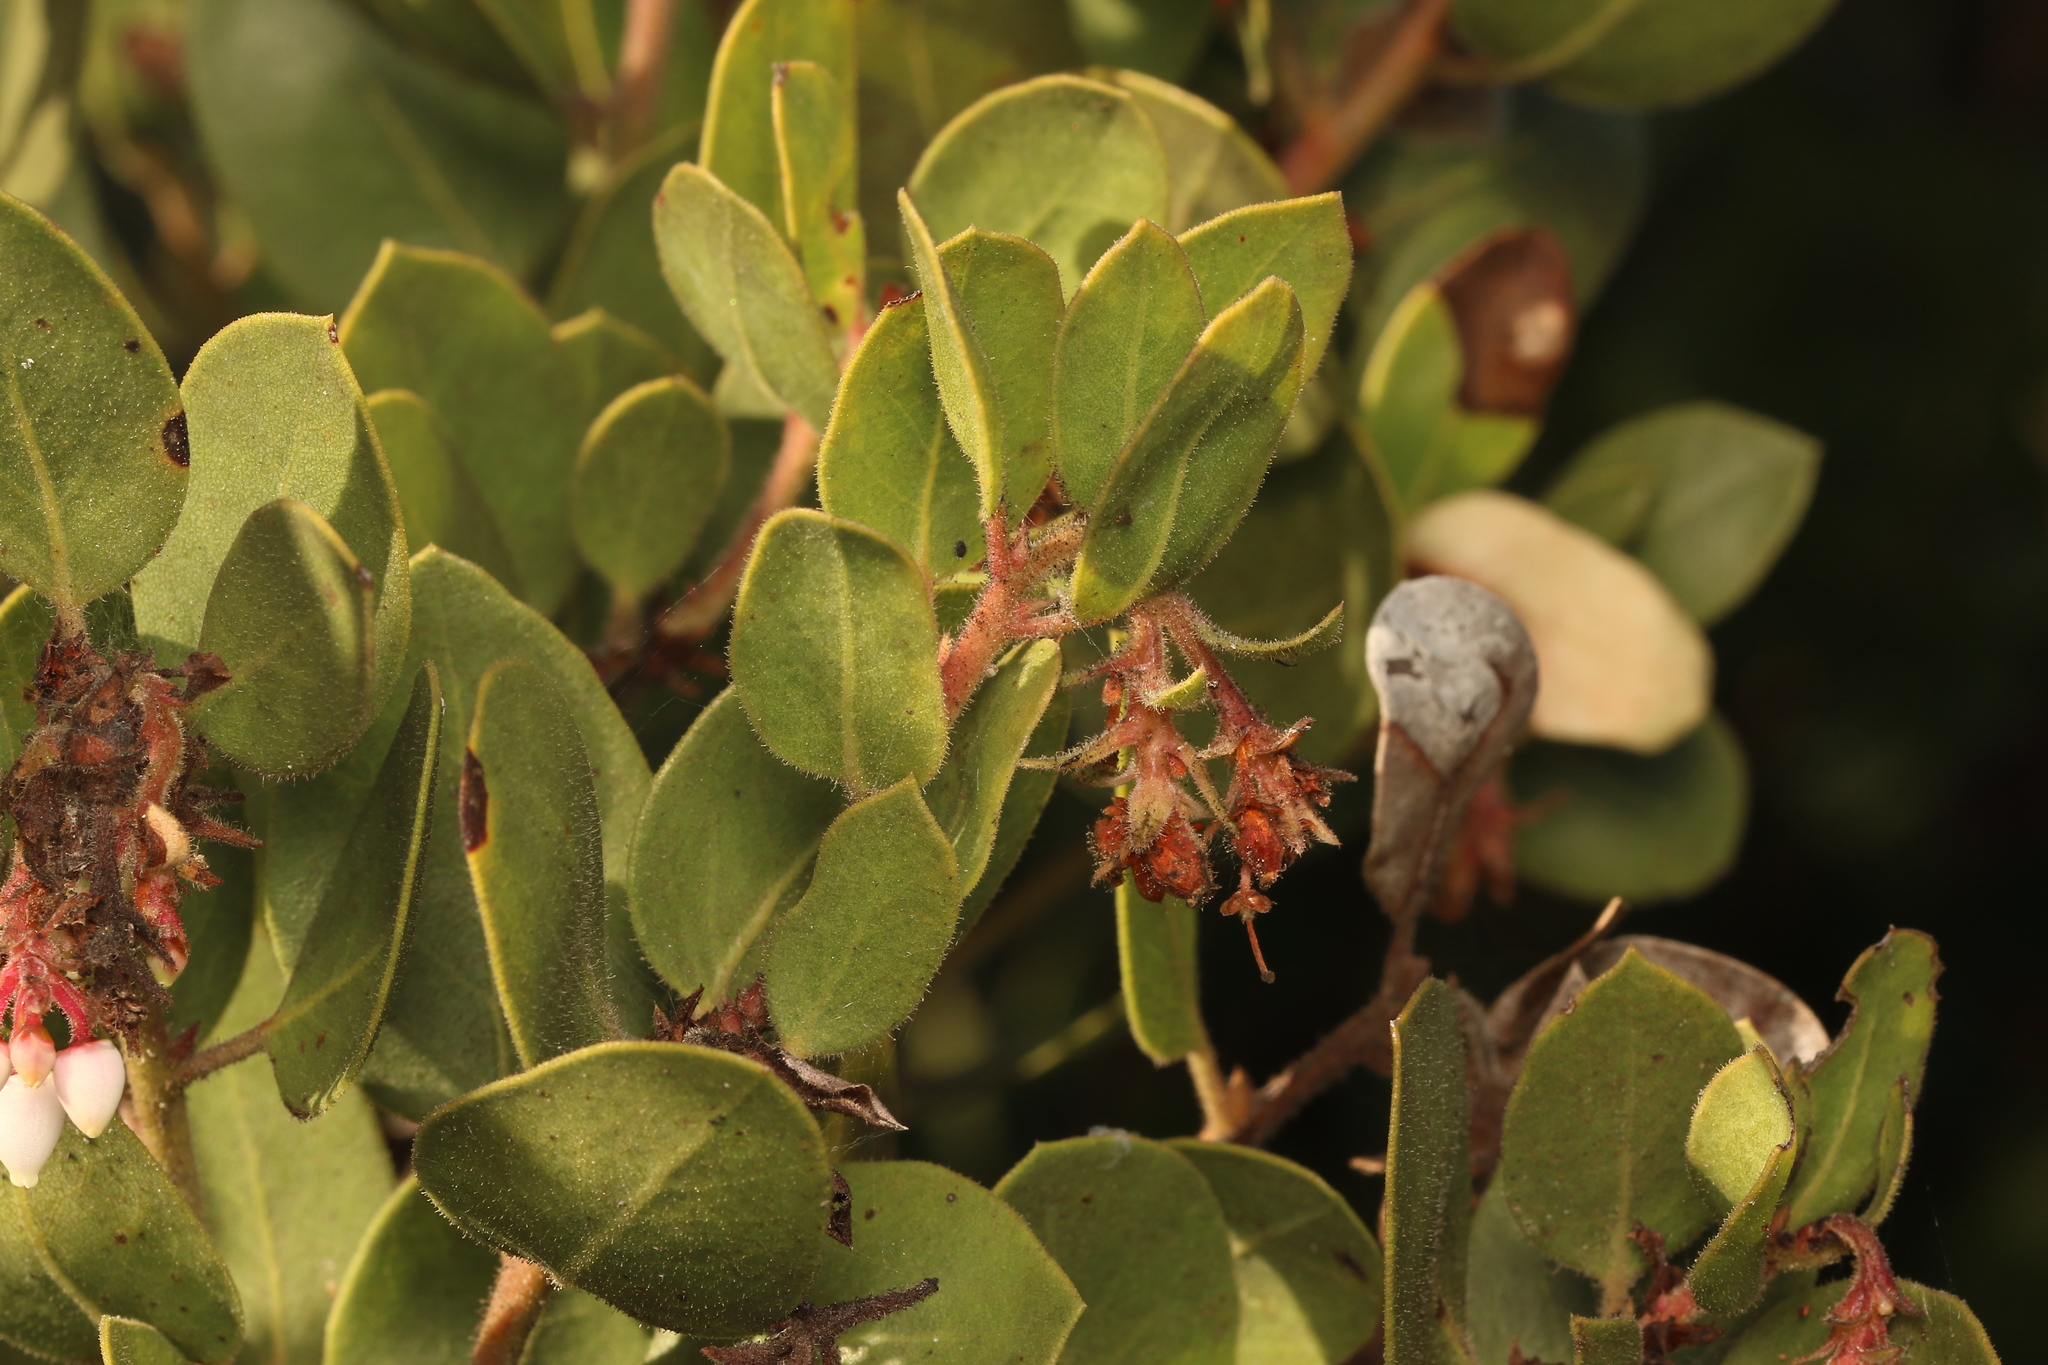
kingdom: Plantae
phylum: Tracheophyta
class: Magnoliopsida
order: Ericales
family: Ericaceae
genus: Arctostaphylos
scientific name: Arctostaphylos montereyensis
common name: Monterey manzanita
